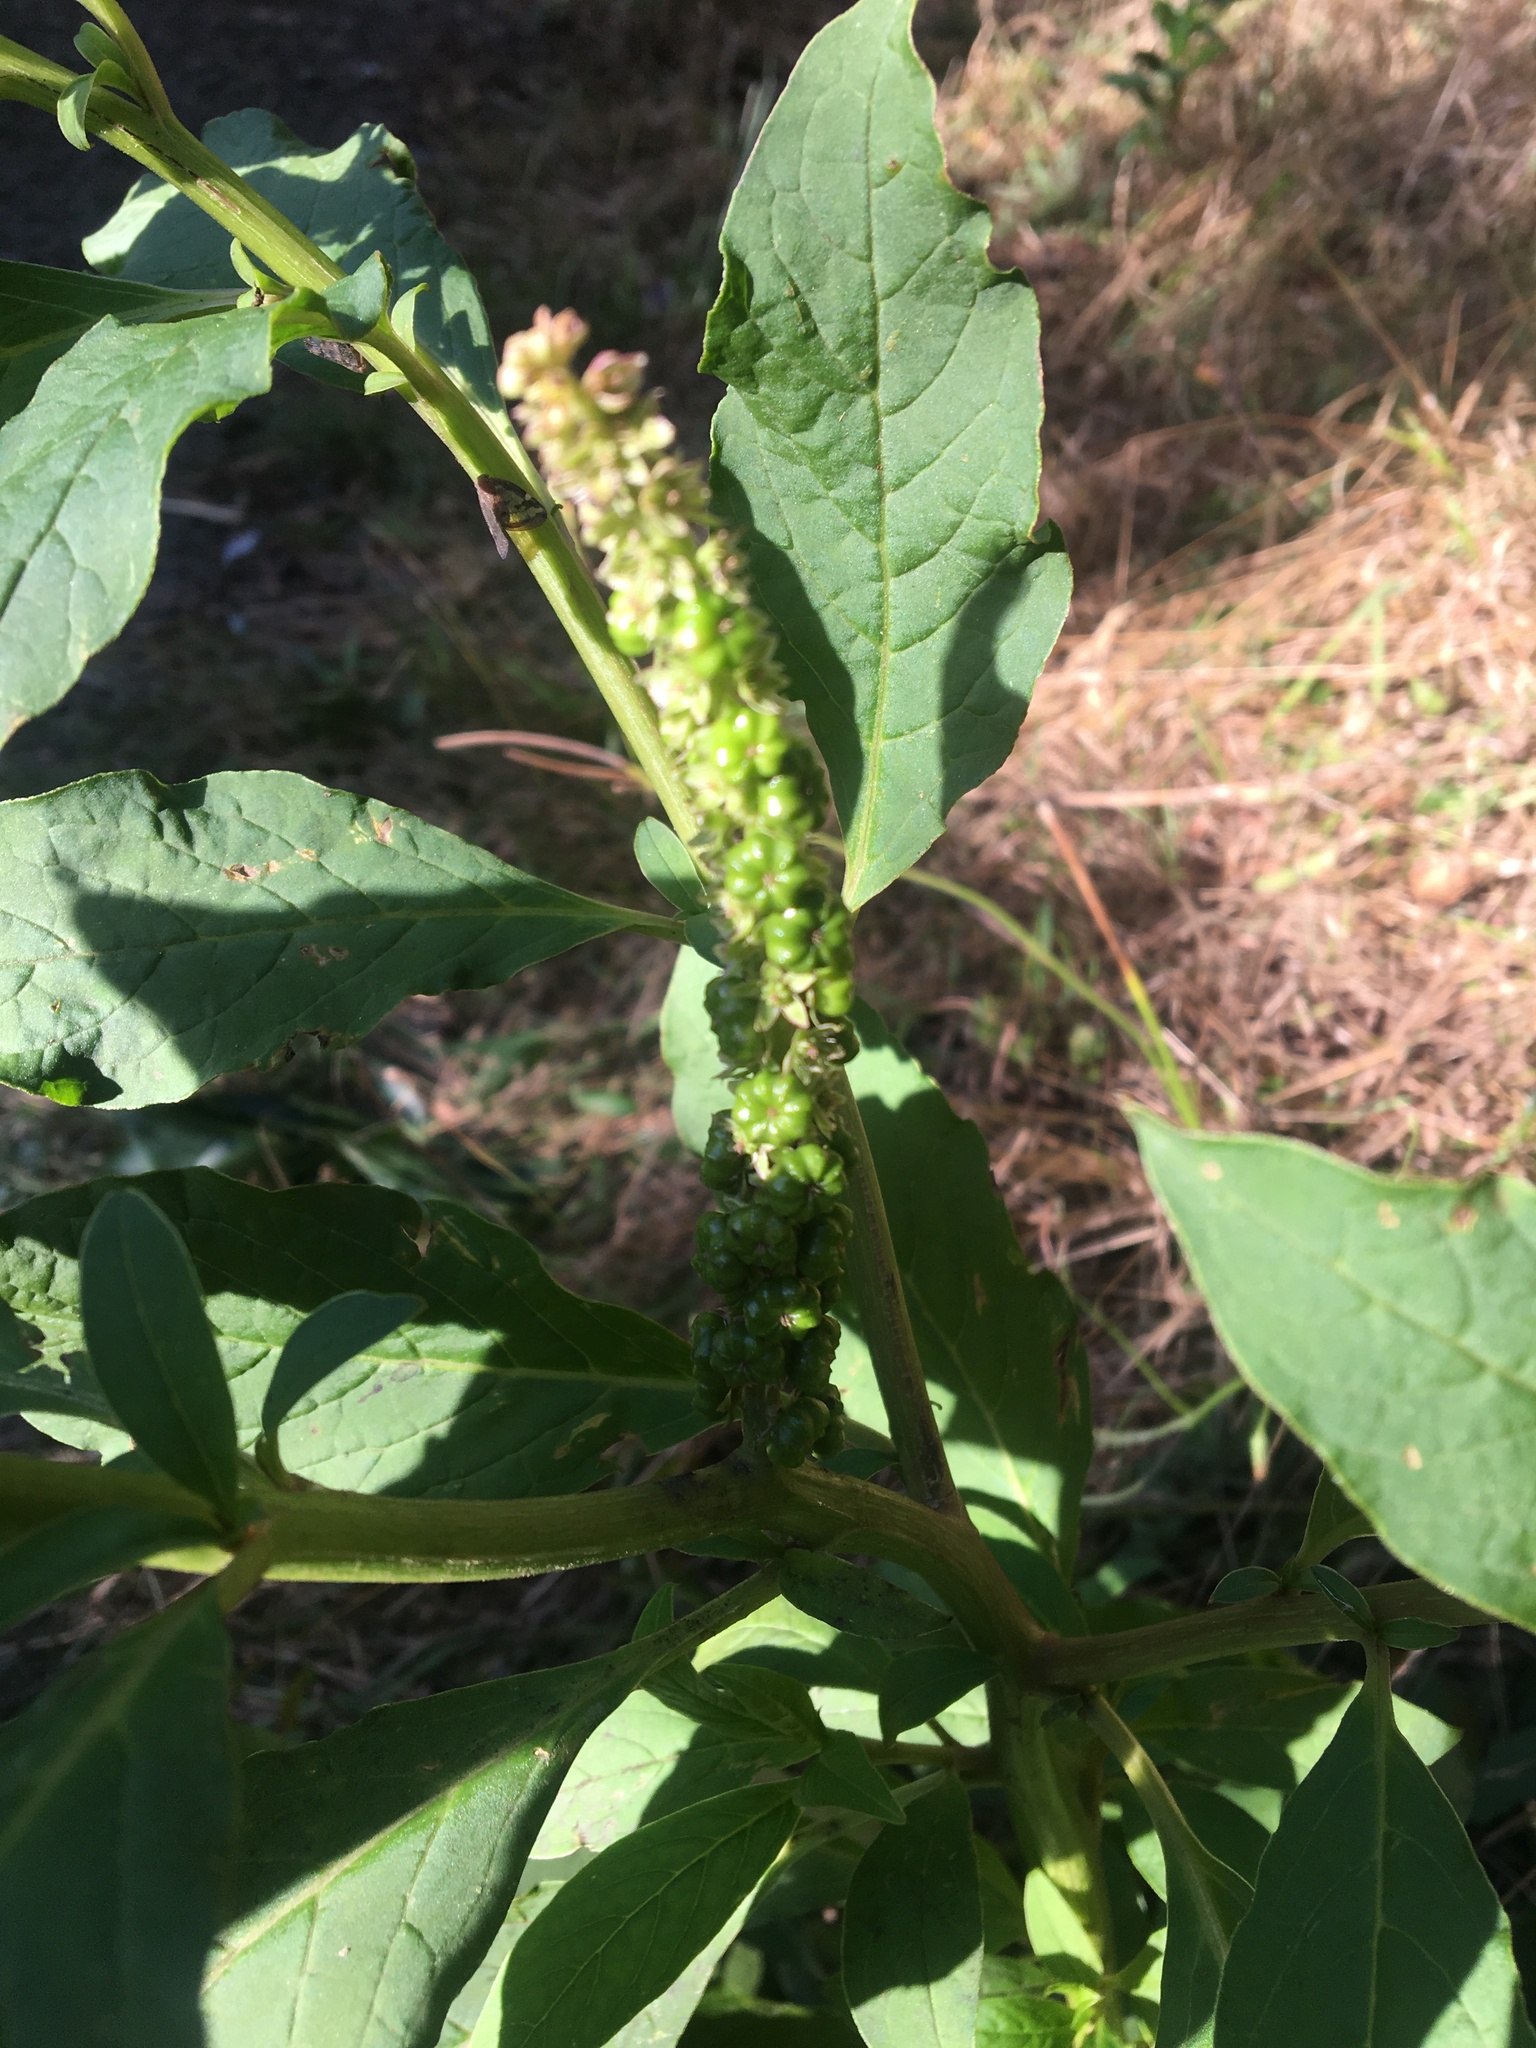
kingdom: Plantae
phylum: Tracheophyta
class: Magnoliopsida
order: Caryophyllales
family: Phytolaccaceae
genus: Phytolacca
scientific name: Phytolacca icosandra
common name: Button pokeweed
